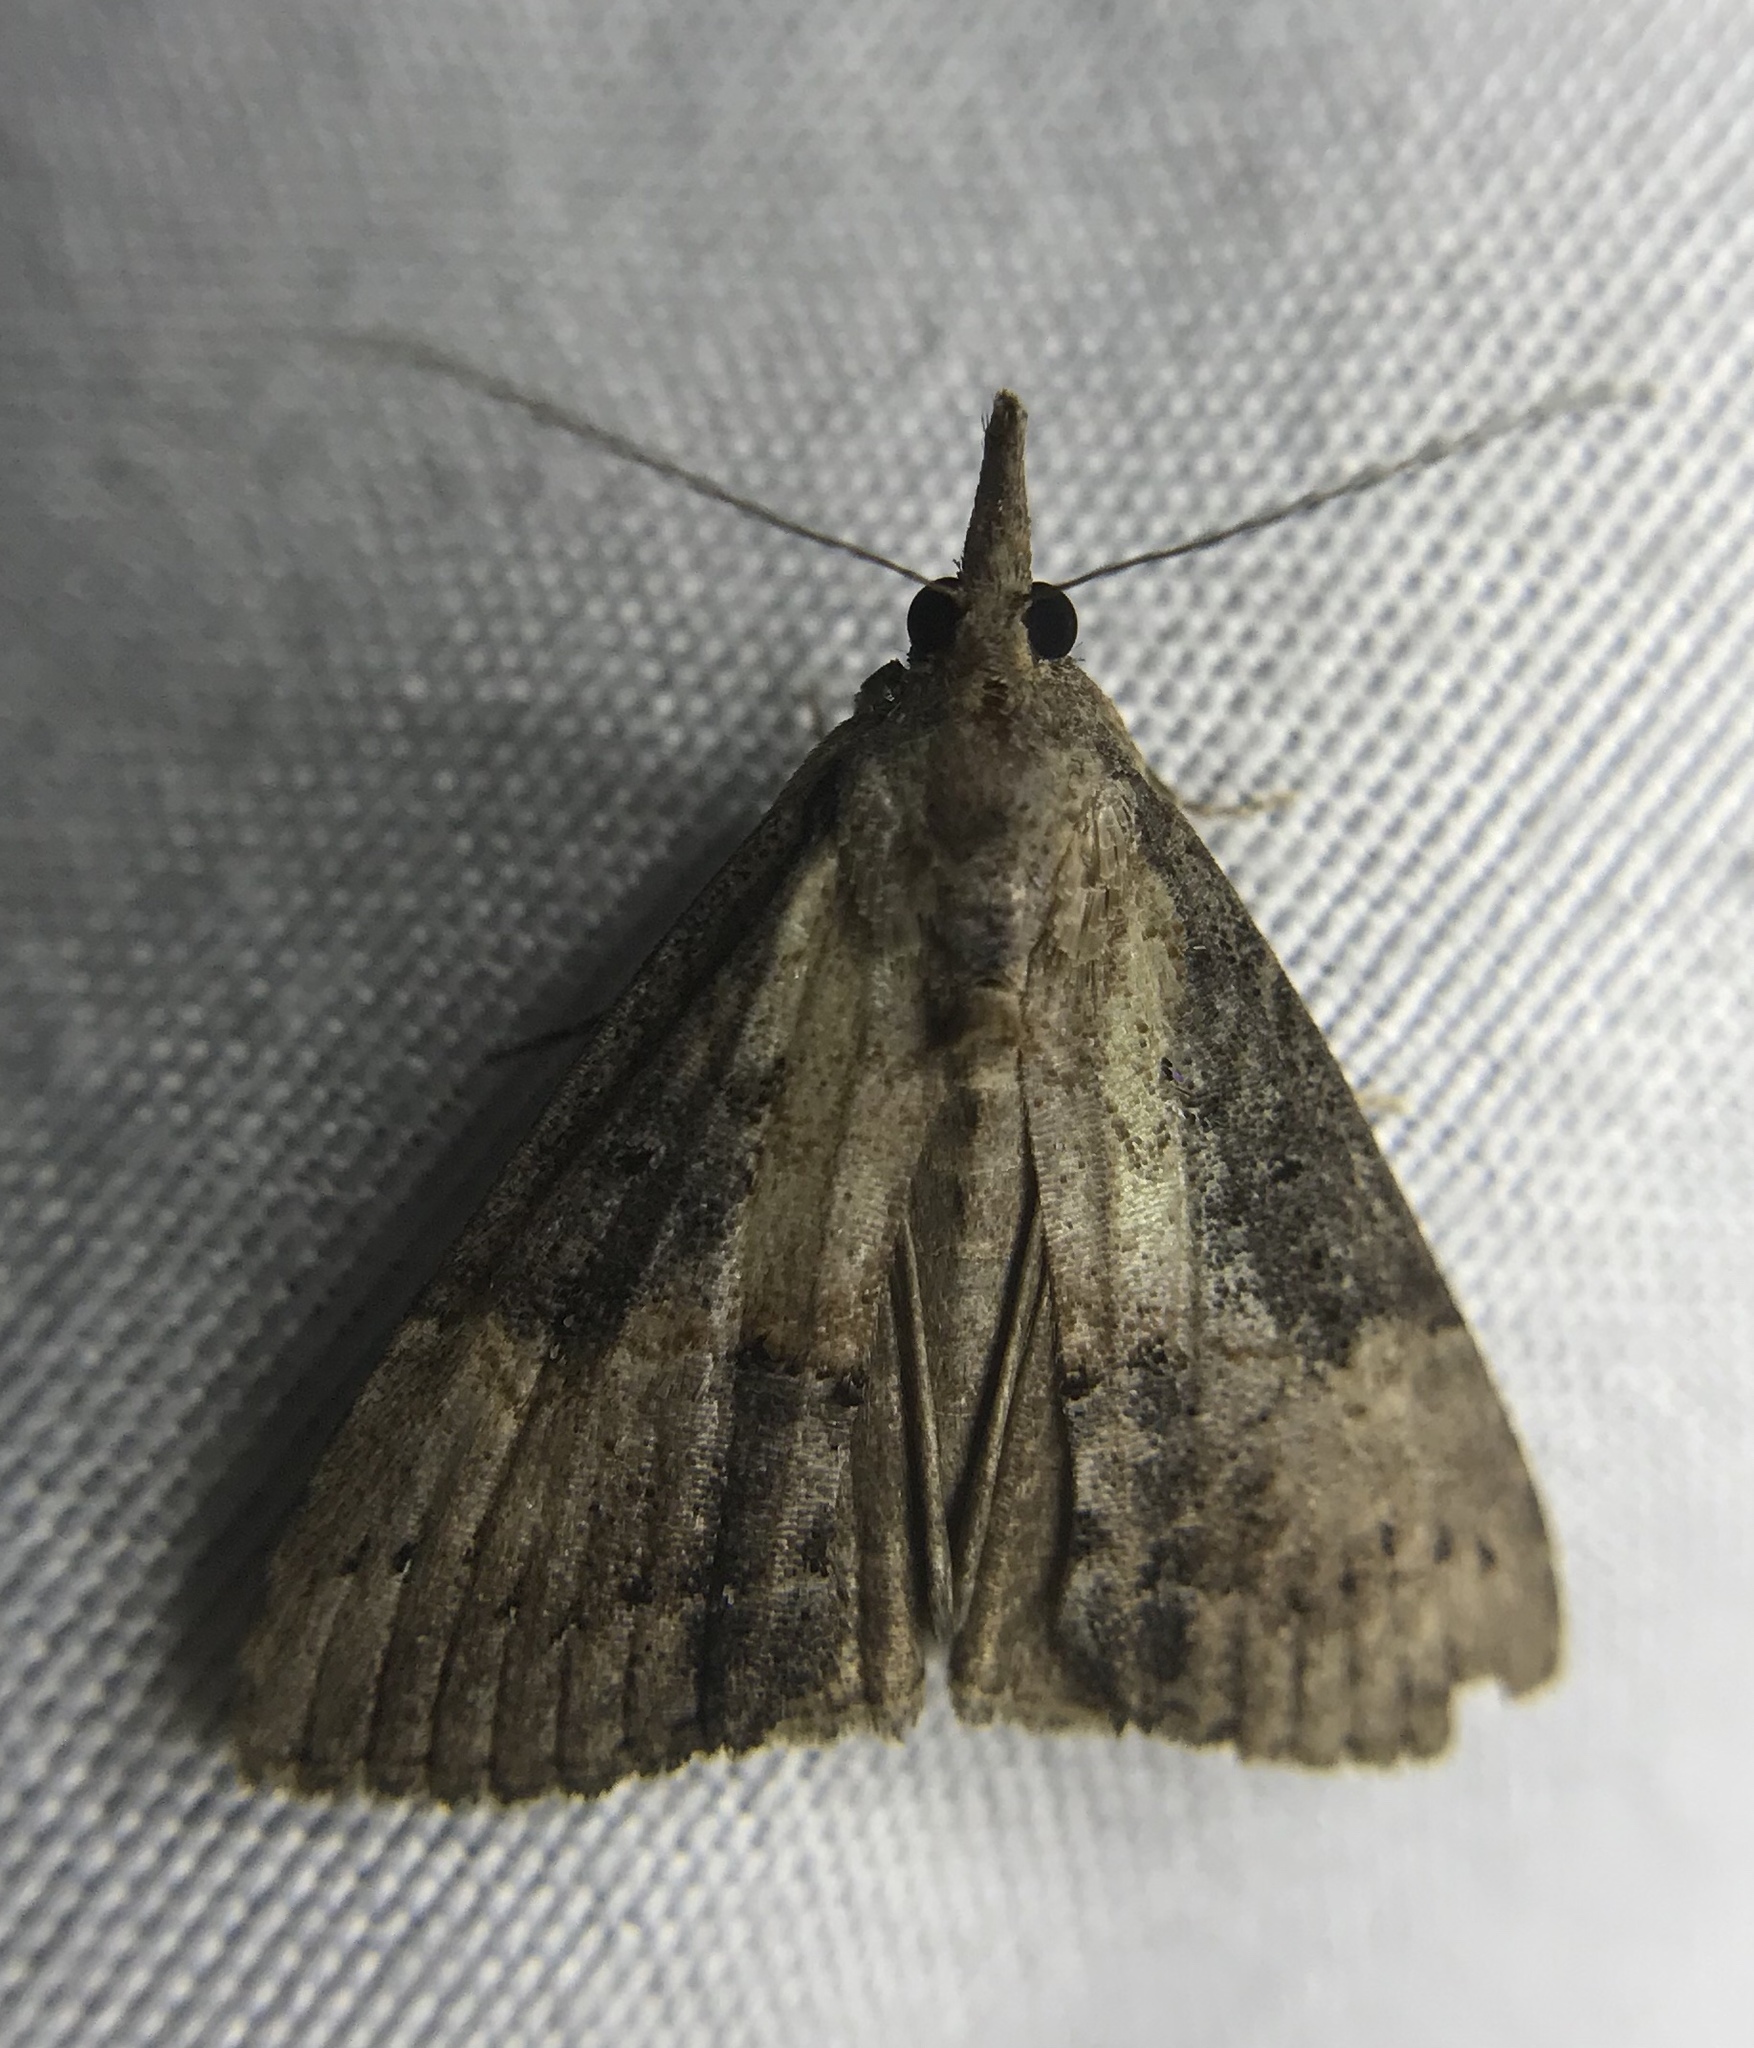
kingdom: Animalia
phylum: Arthropoda
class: Insecta
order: Lepidoptera
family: Erebidae
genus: Hypena
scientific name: Hypena scabra
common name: Green cloverworm
